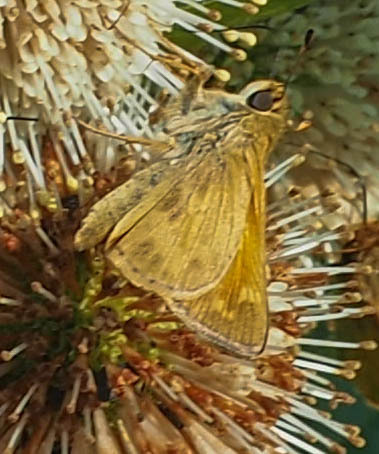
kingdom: Animalia
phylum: Arthropoda
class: Insecta
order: Lepidoptera
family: Hesperiidae
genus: Atalopedes
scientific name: Atalopedes
